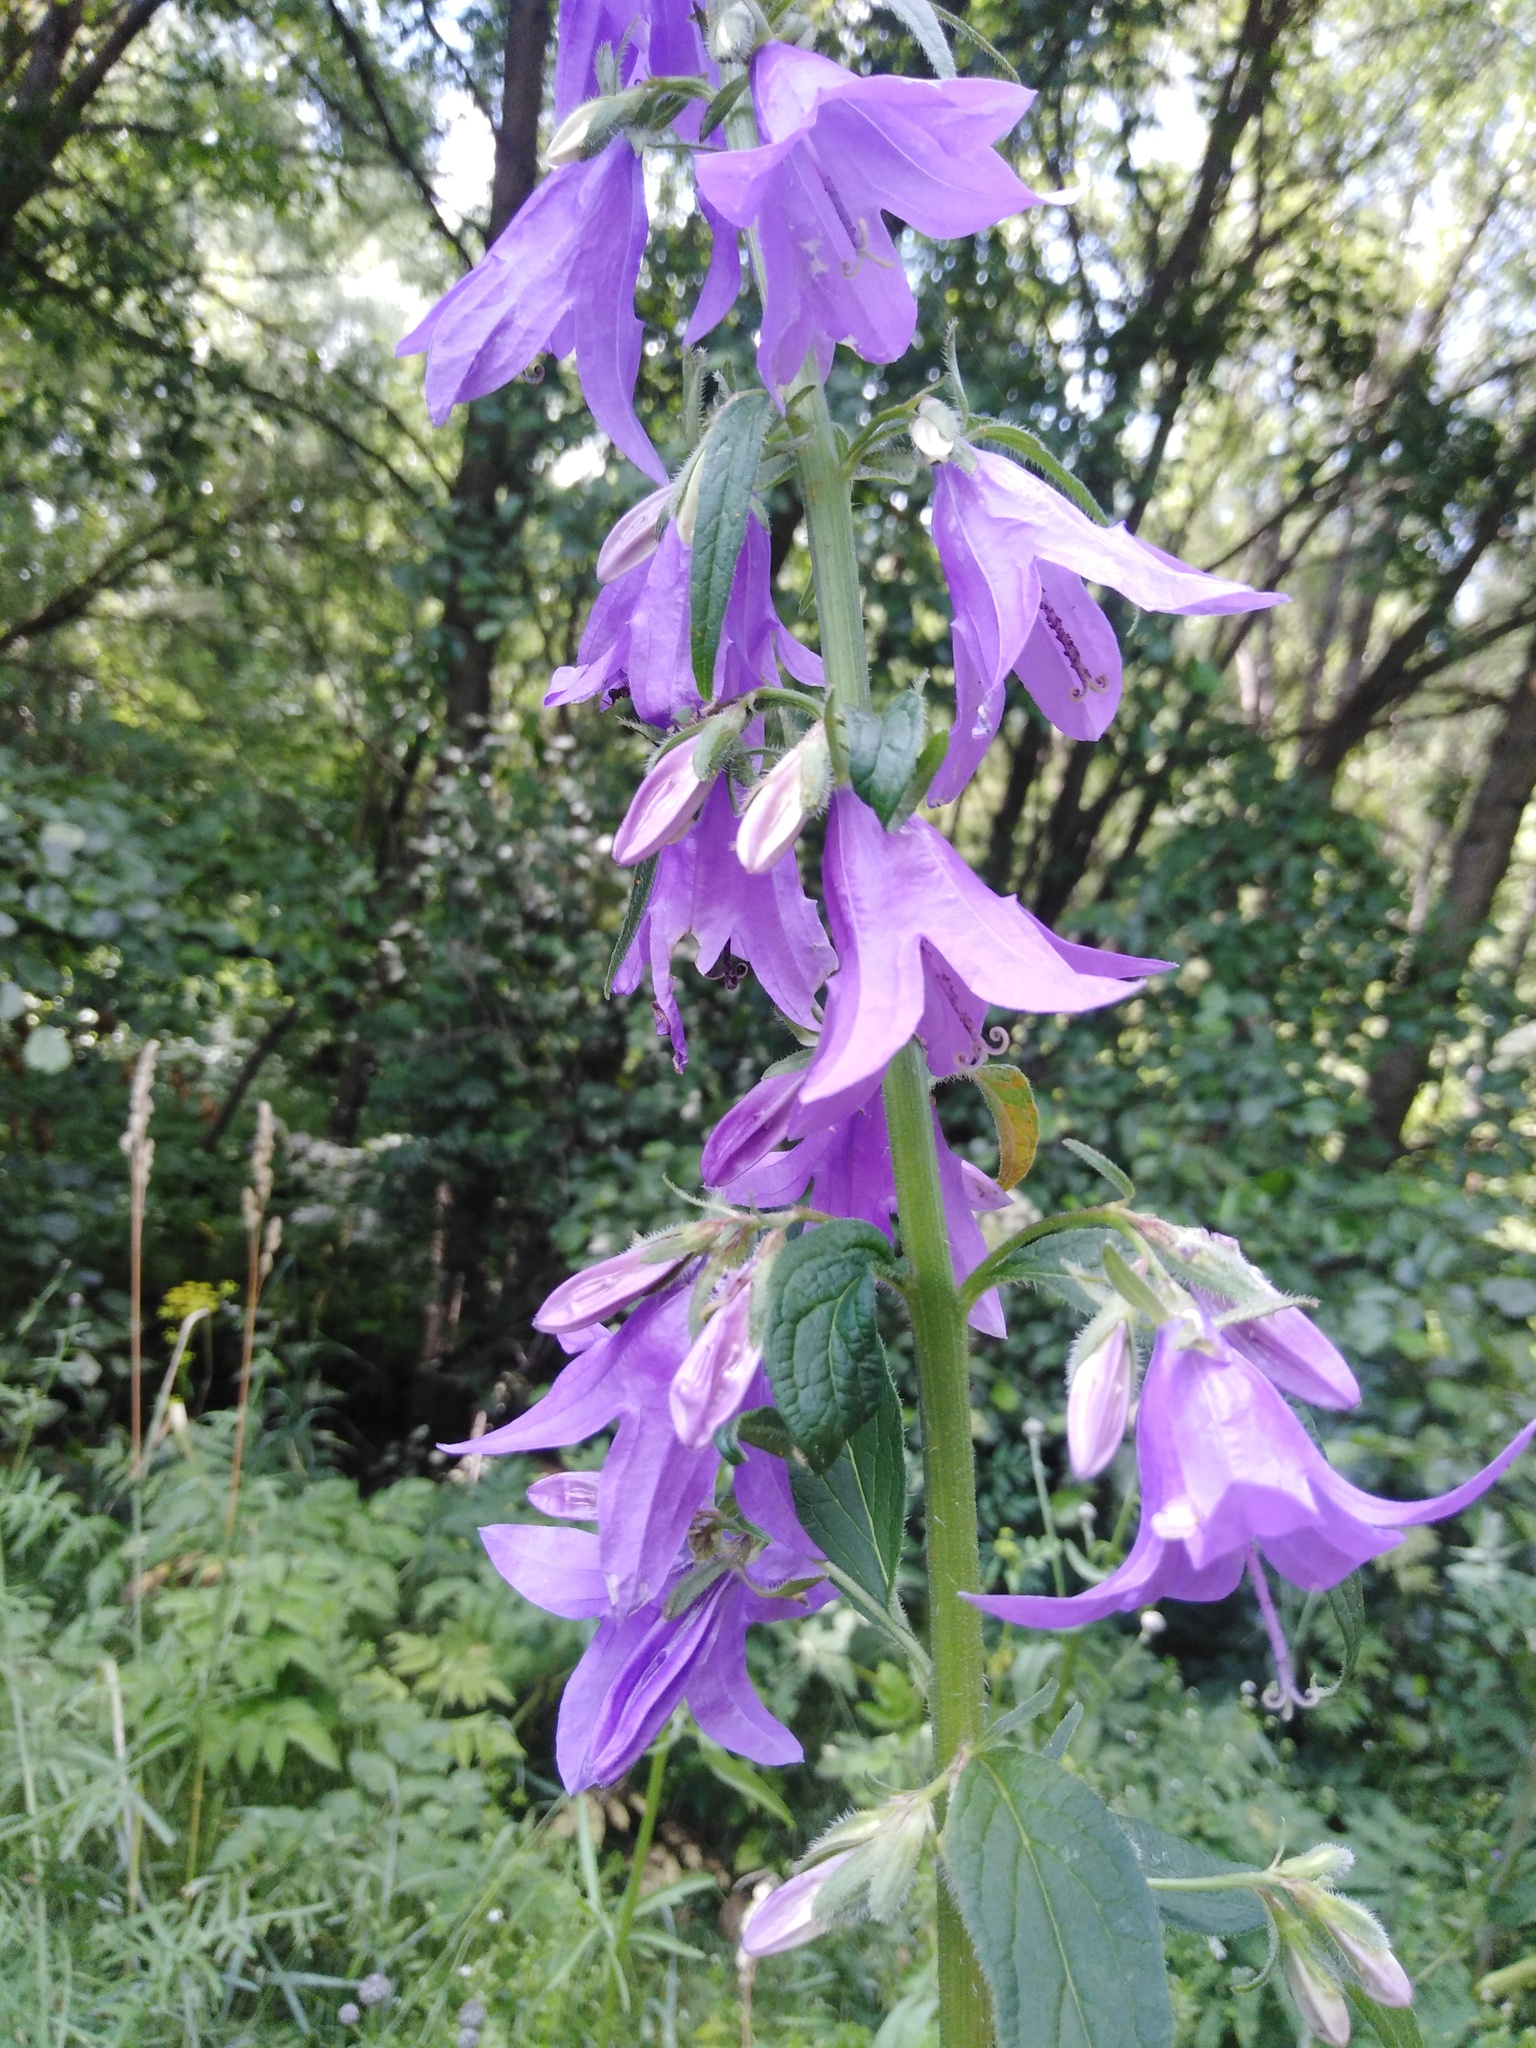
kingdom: Plantae
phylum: Tracheophyta
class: Magnoliopsida
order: Asterales
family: Campanulaceae
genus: Campanula
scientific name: Campanula rapunculoides
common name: Creeping bellflower
